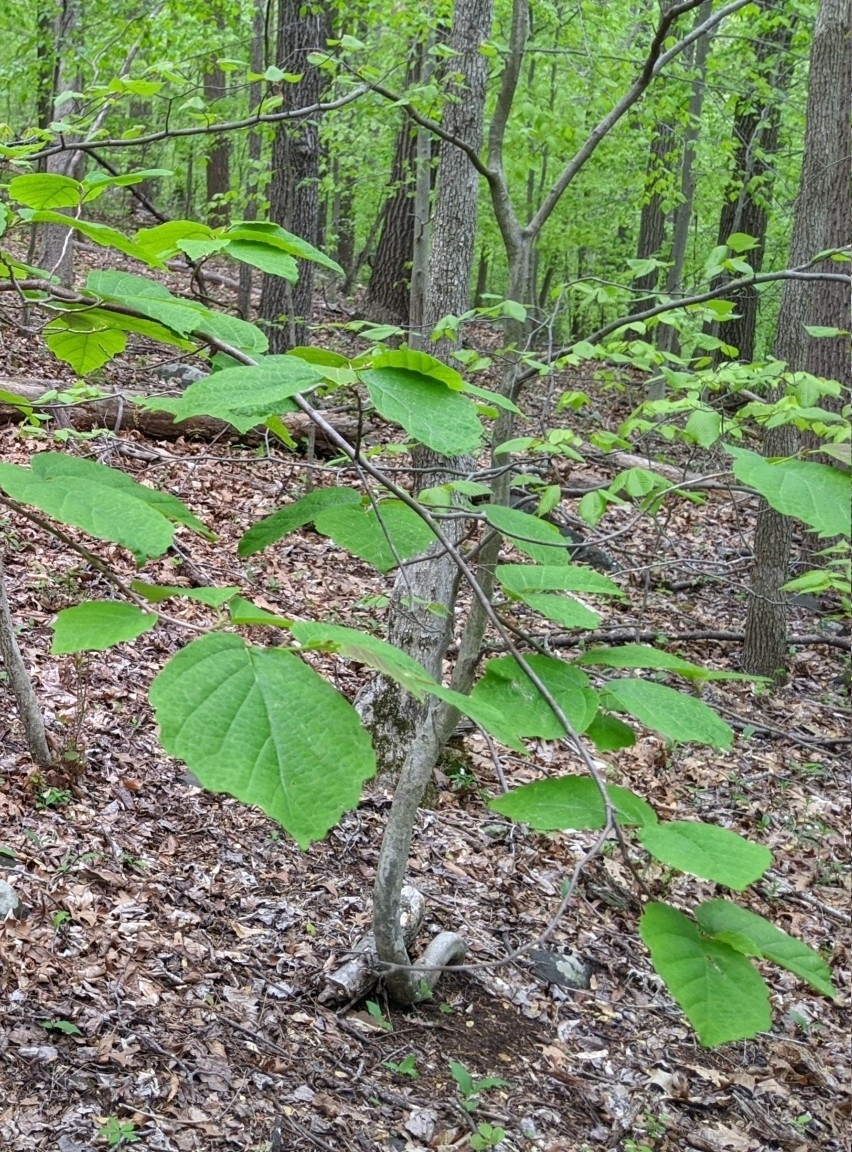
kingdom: Plantae
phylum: Tracheophyta
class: Magnoliopsida
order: Saxifragales
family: Hamamelidaceae
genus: Hamamelis
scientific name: Hamamelis virginiana
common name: Witch-hazel
